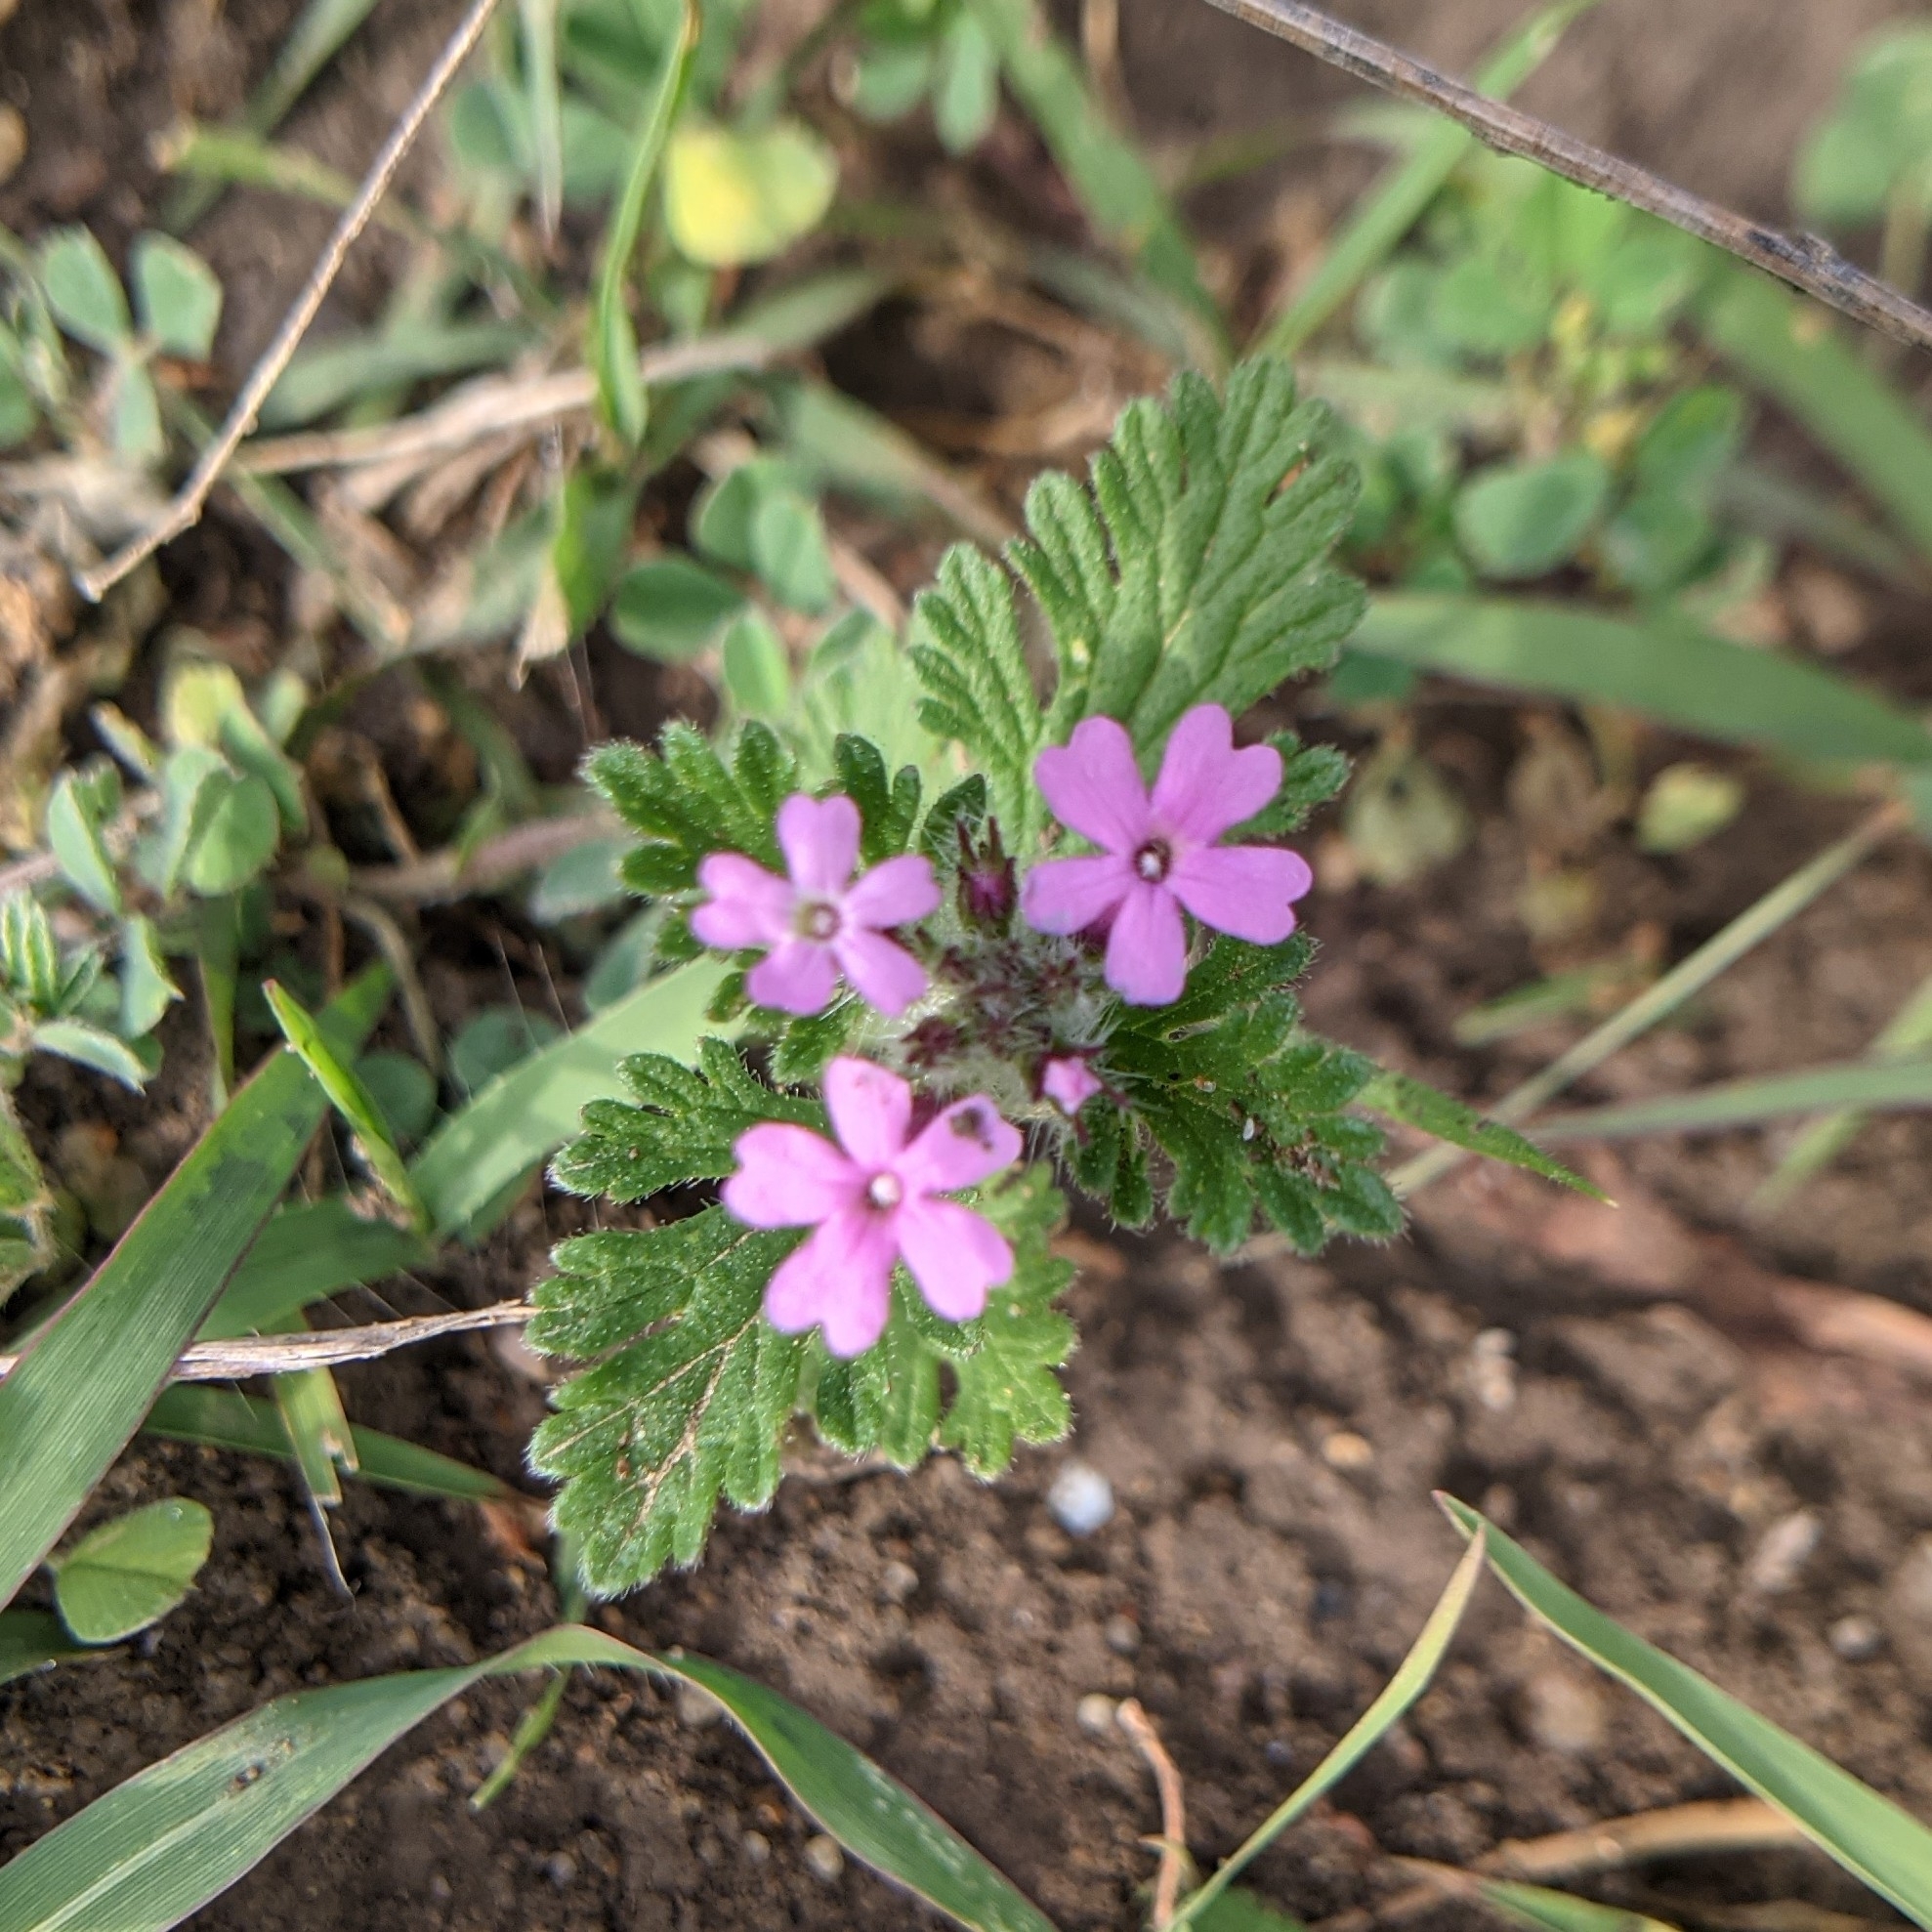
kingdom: Plantae
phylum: Tracheophyta
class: Magnoliopsida
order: Lamiales
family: Verbenaceae
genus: Verbena
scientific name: Verbena pumila
